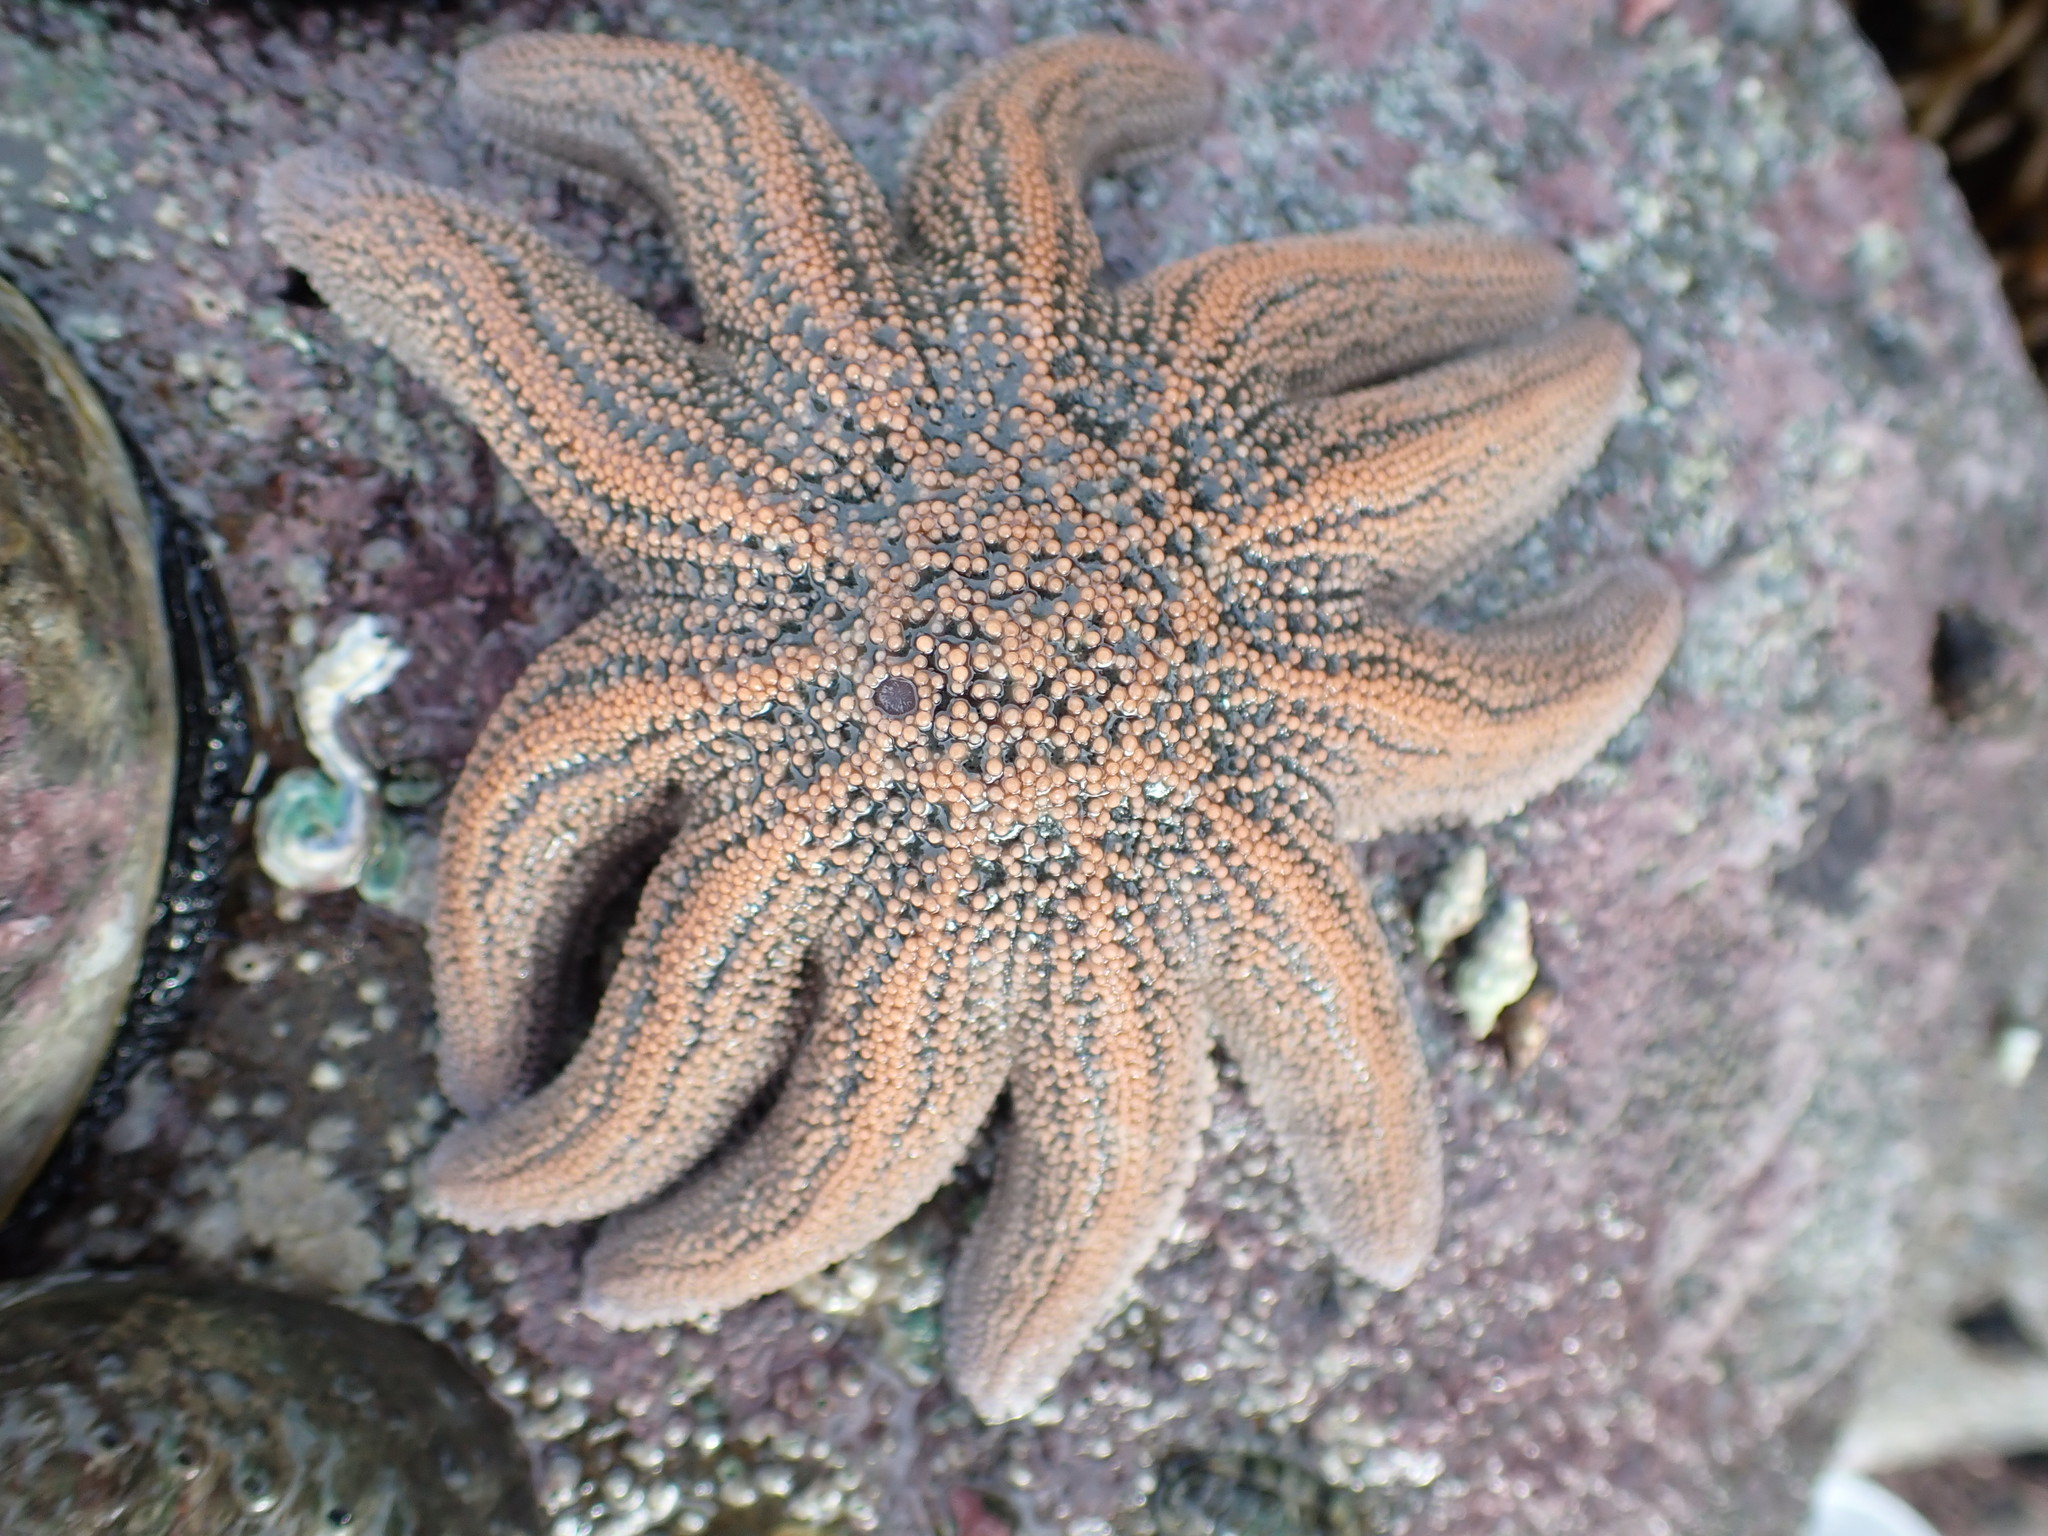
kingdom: Animalia
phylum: Echinodermata
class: Asteroidea
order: Forcipulatida
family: Stichasteridae
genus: Stichaster
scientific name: Stichaster australis
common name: Reef starfish
